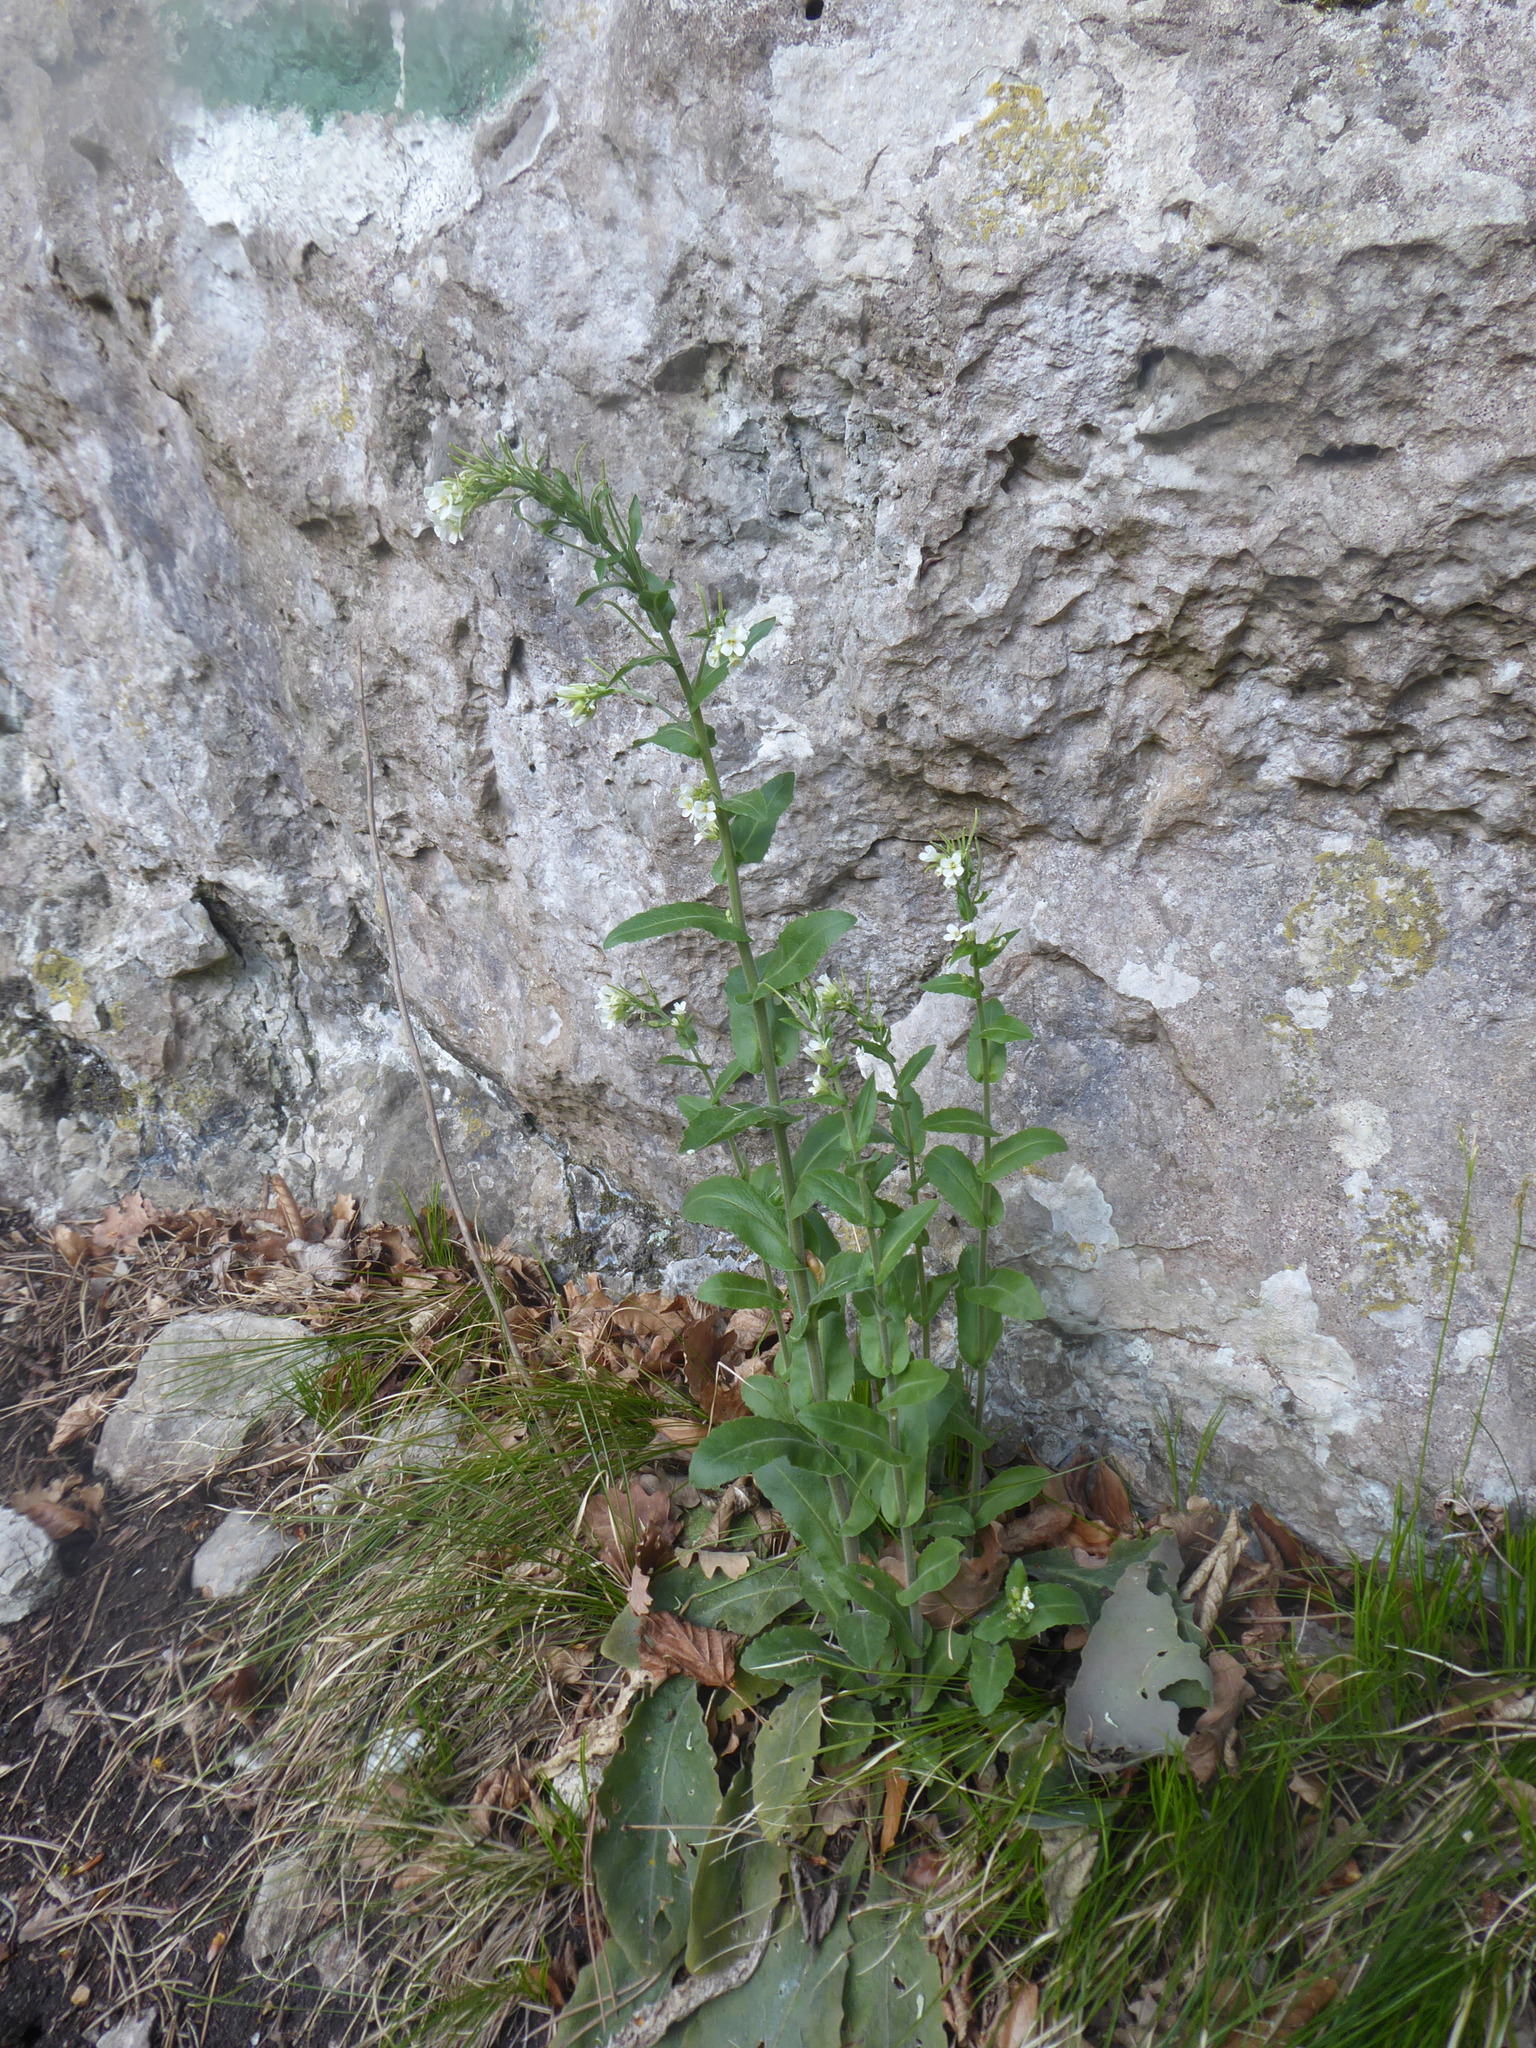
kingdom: Plantae
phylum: Tracheophyta
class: Magnoliopsida
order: Brassicales
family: Brassicaceae
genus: Pseudoturritis
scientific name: Pseudoturritis turrita
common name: Tower cress
